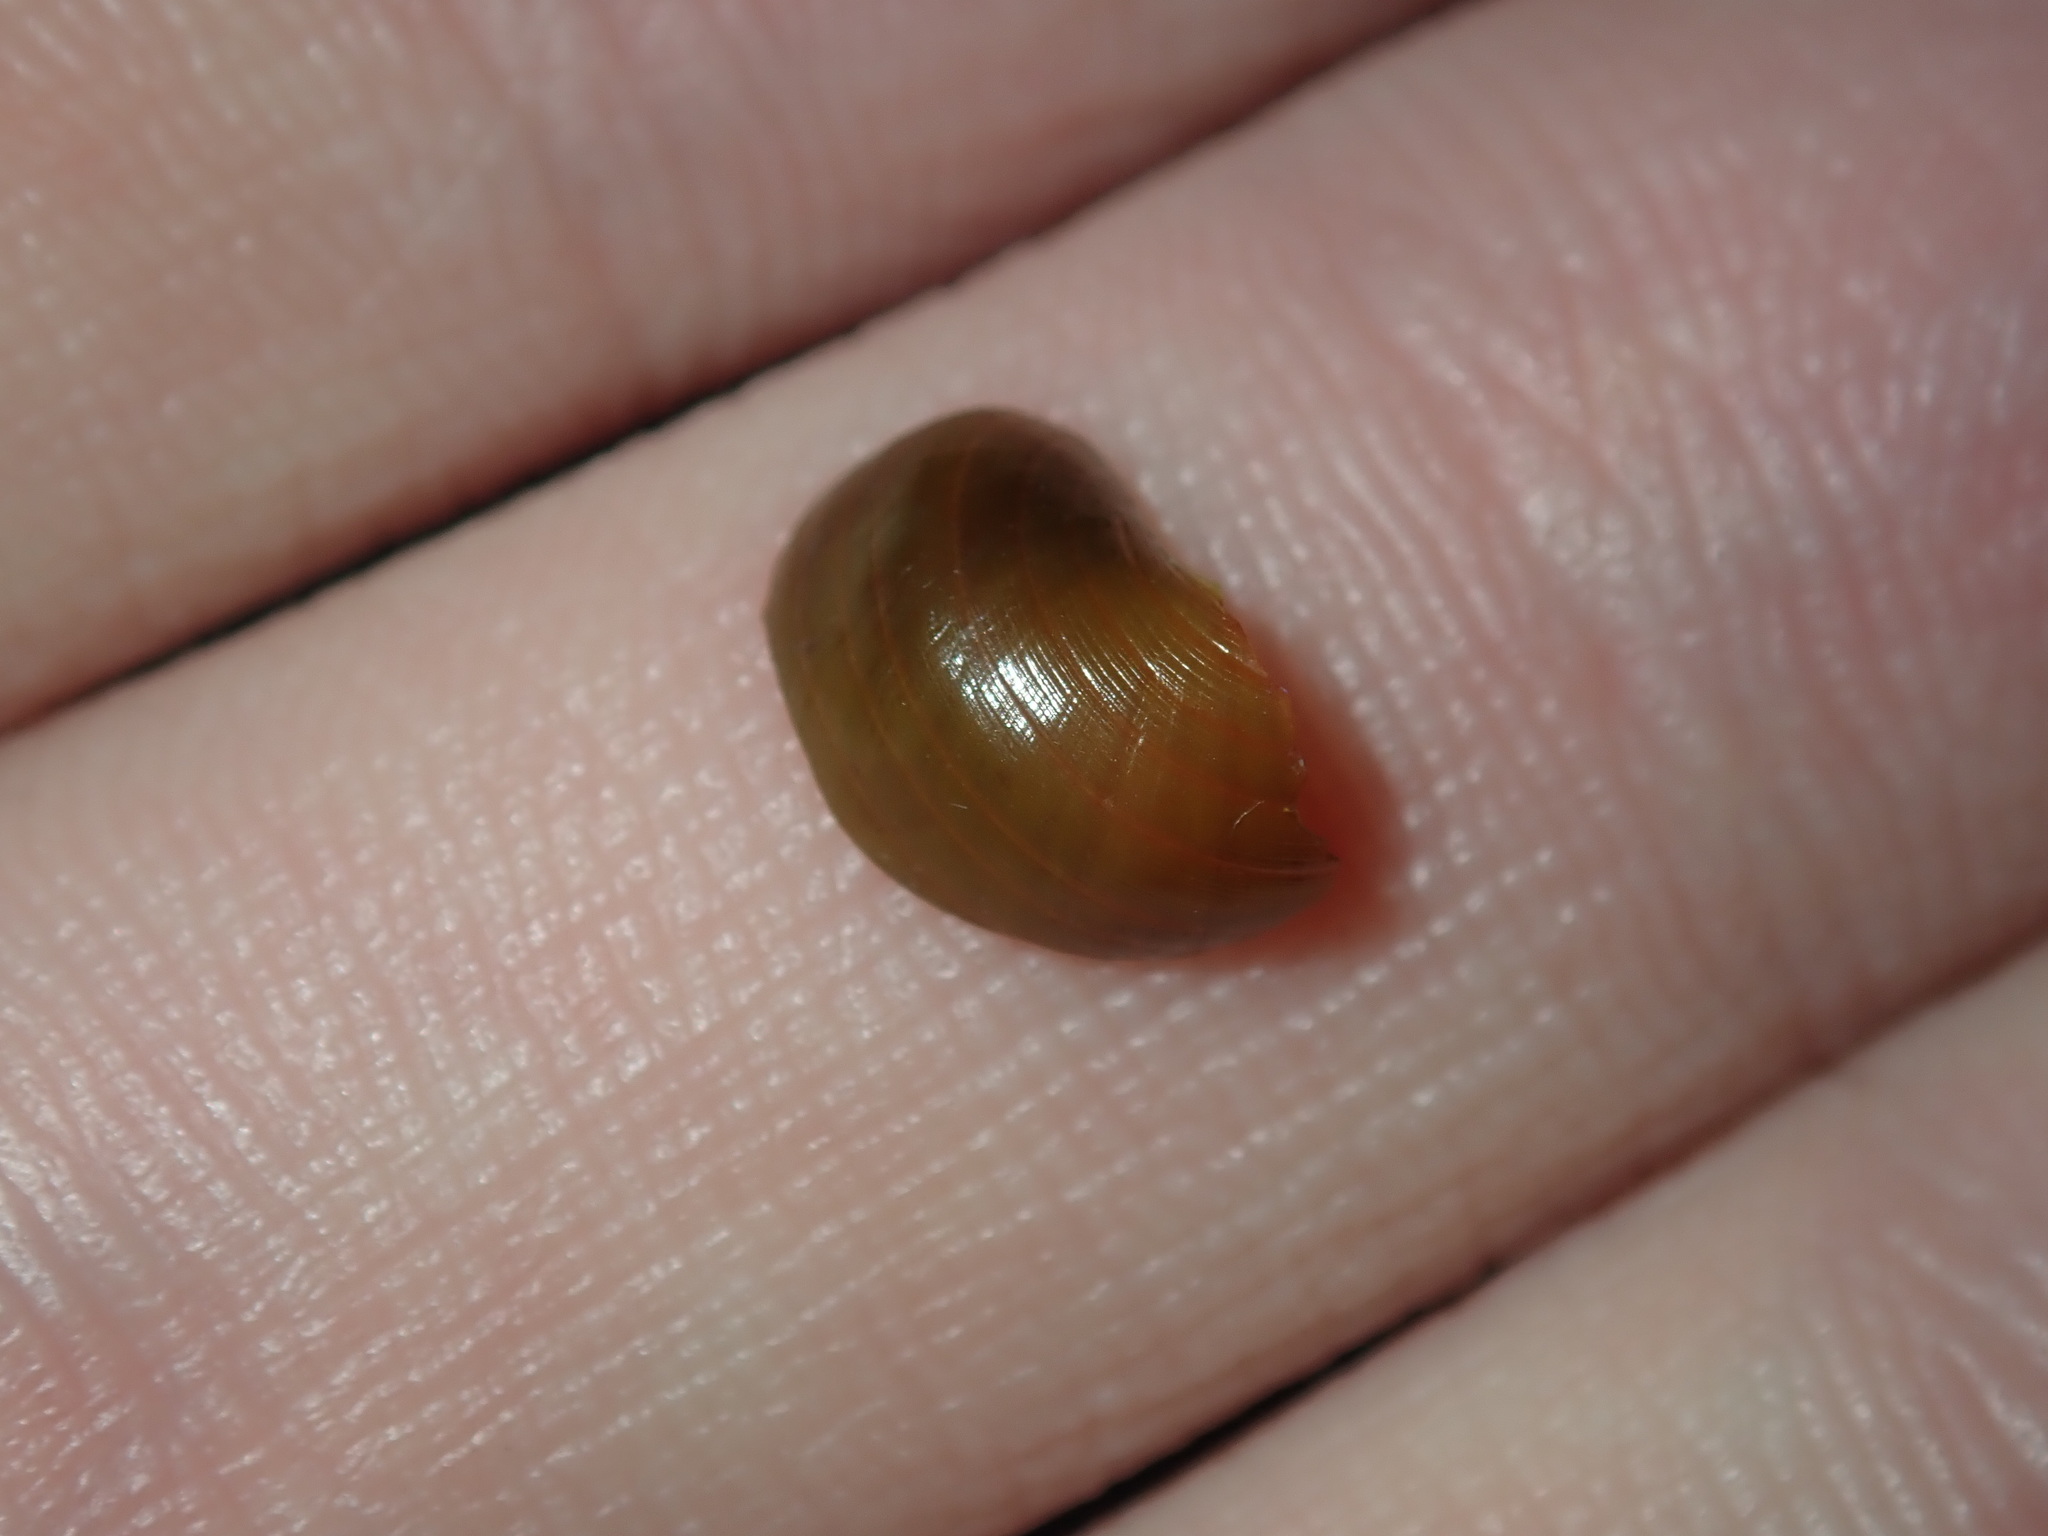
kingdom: Animalia
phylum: Mollusca
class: Gastropoda
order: Trochida
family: Trochidae
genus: Phasianotrochus
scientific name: Phasianotrochus eximius
